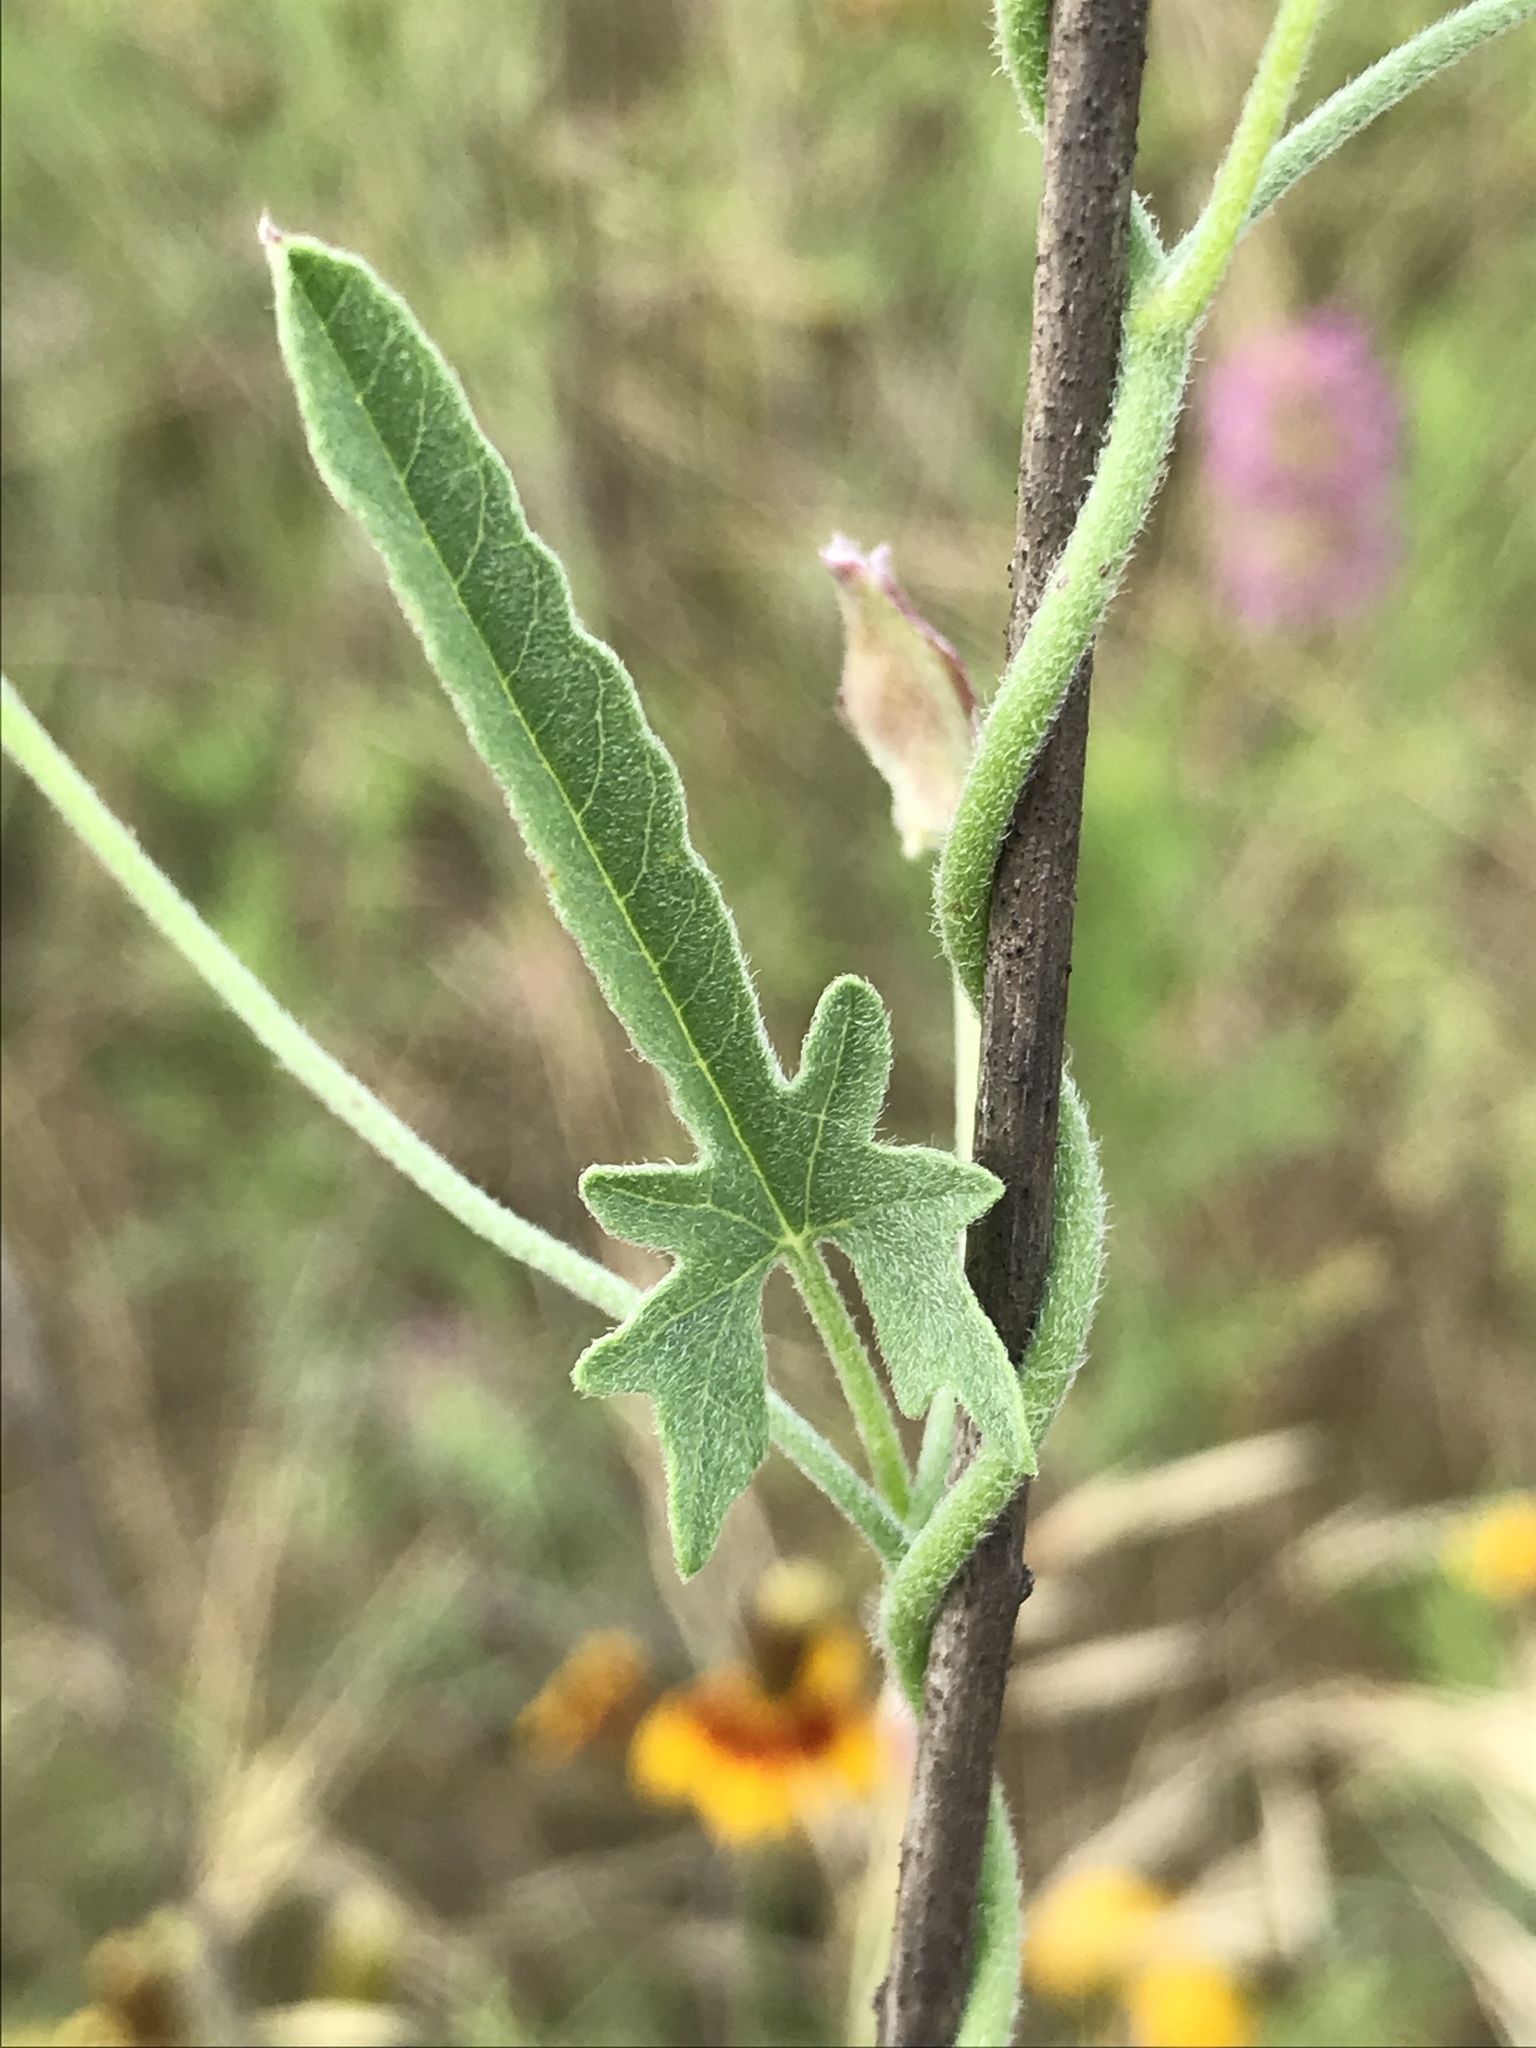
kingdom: Plantae
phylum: Tracheophyta
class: Magnoliopsida
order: Solanales
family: Convolvulaceae
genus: Convolvulus
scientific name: Convolvulus equitans
